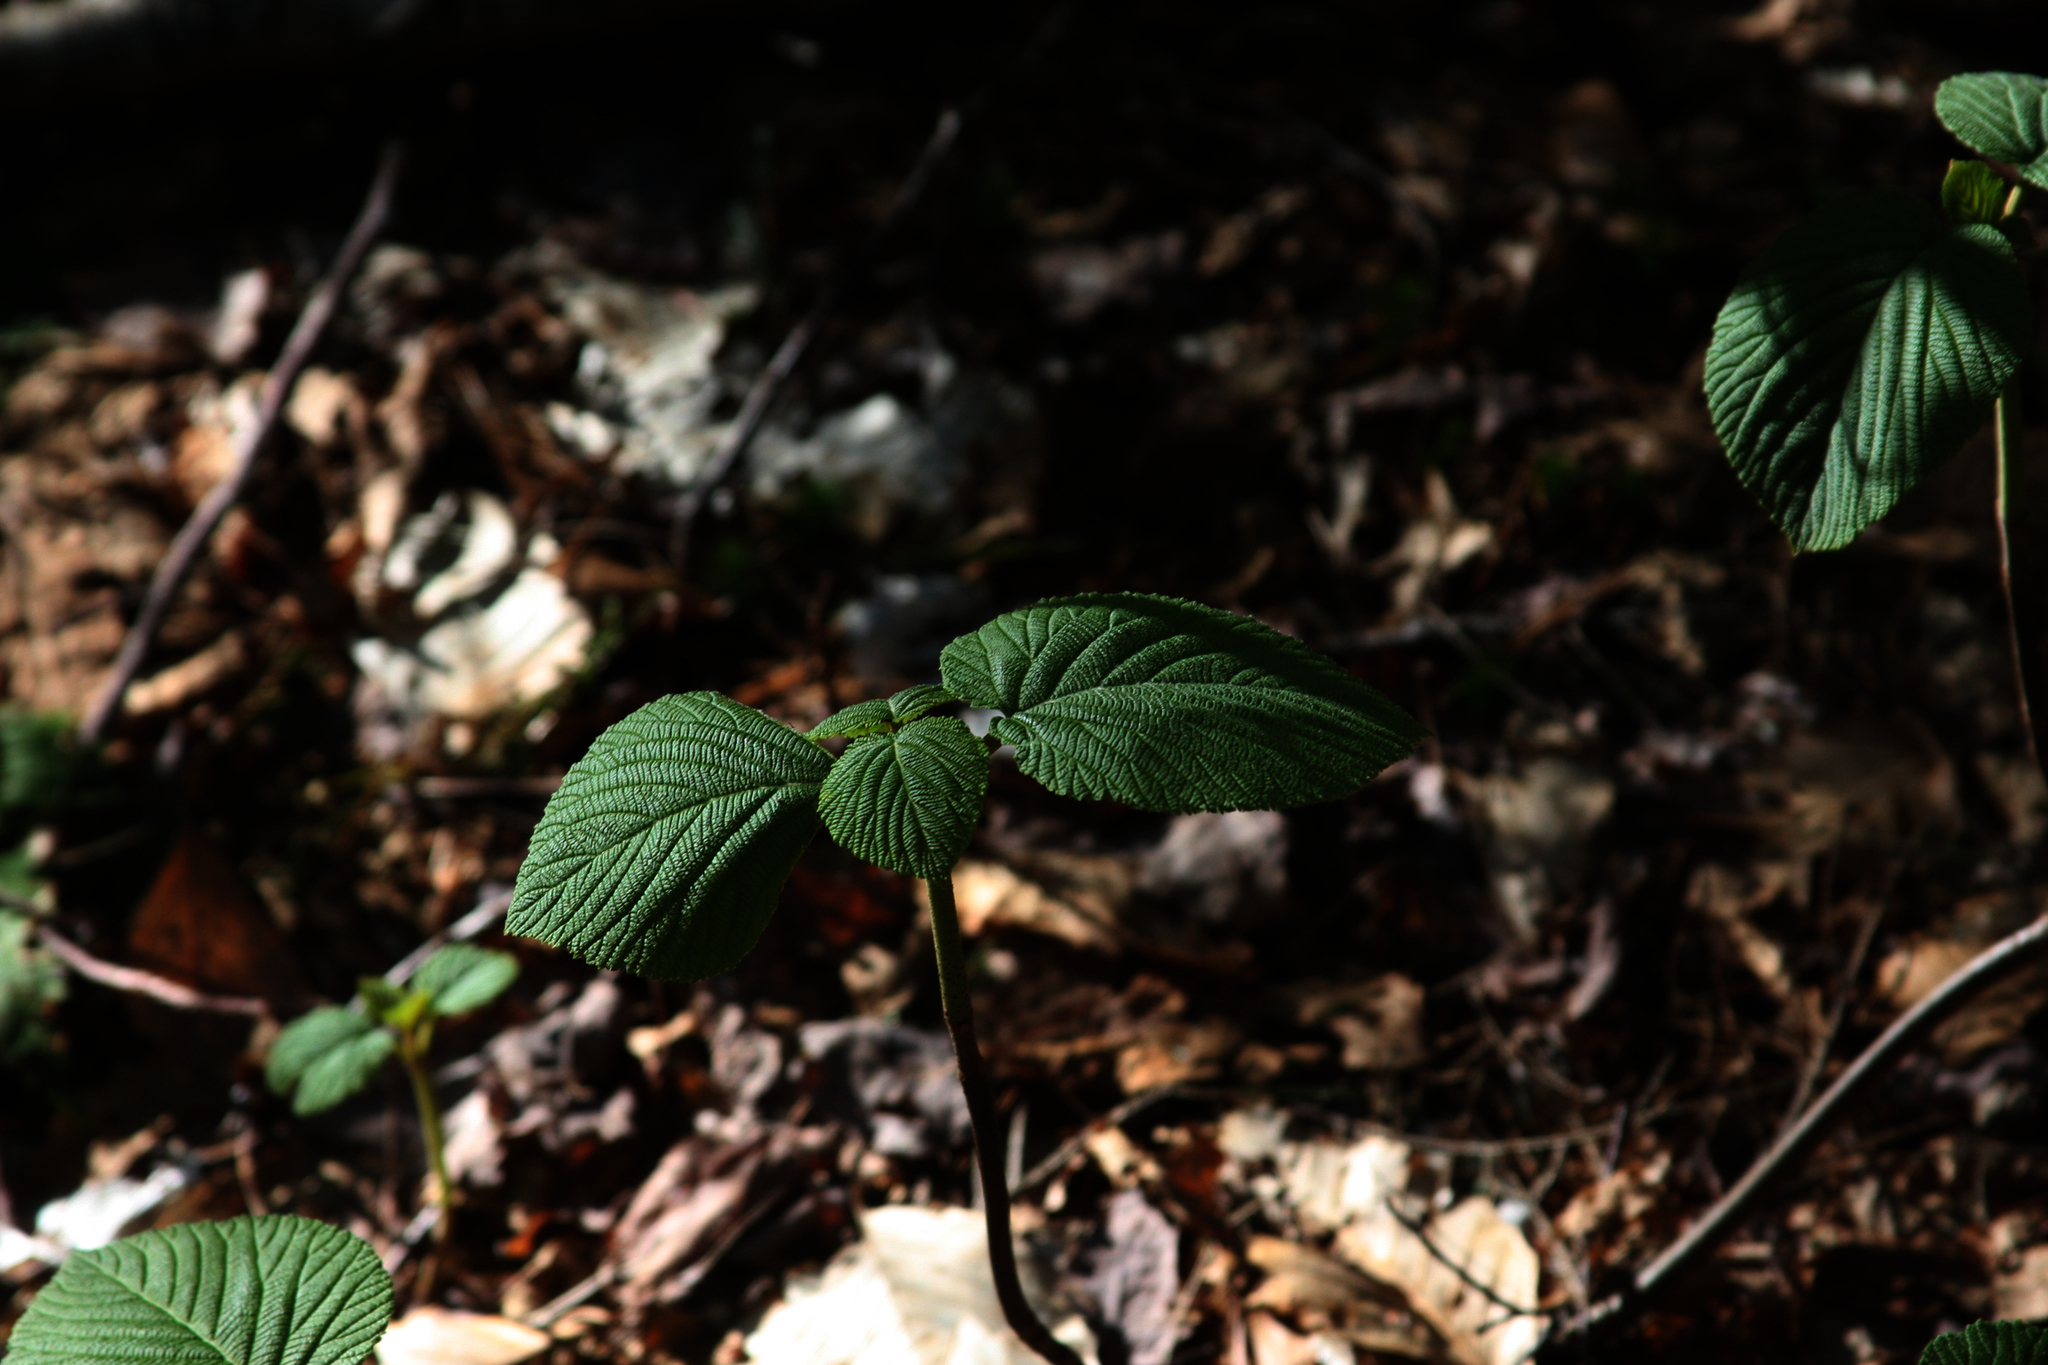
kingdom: Plantae
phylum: Tracheophyta
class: Magnoliopsida
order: Dipsacales
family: Viburnaceae
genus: Viburnum
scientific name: Viburnum lantanoides
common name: Hobblebush
